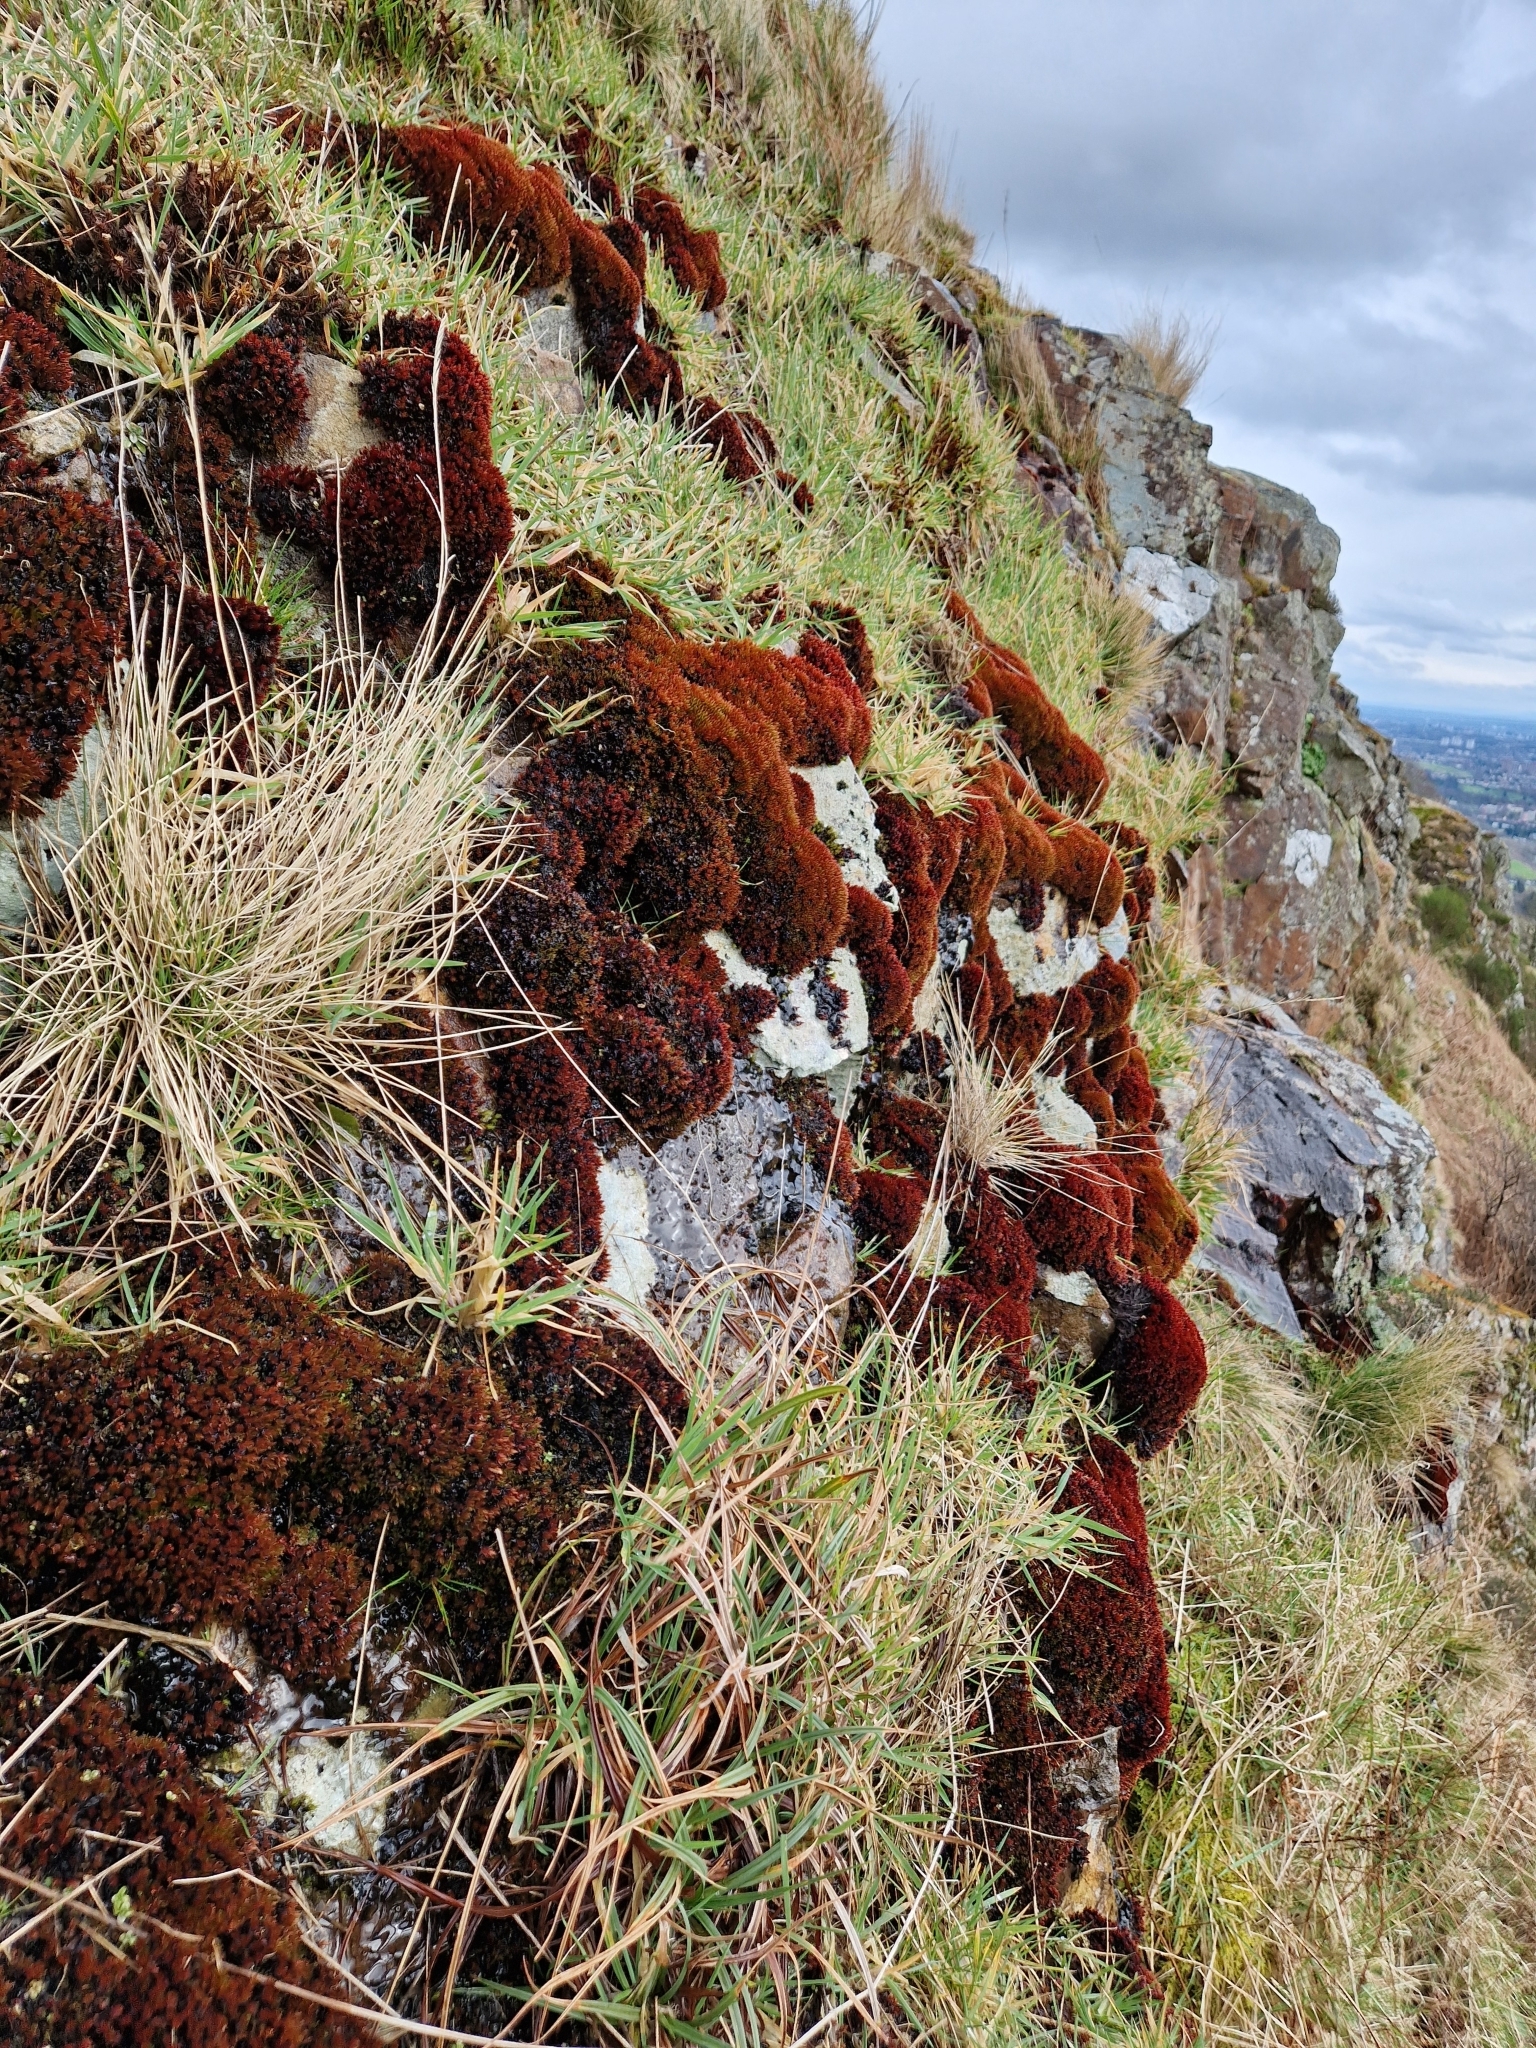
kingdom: Plantae
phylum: Bryophyta
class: Bryopsida
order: Bryales
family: Bryaceae
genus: Imbribryum
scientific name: Imbribryum alpinum
